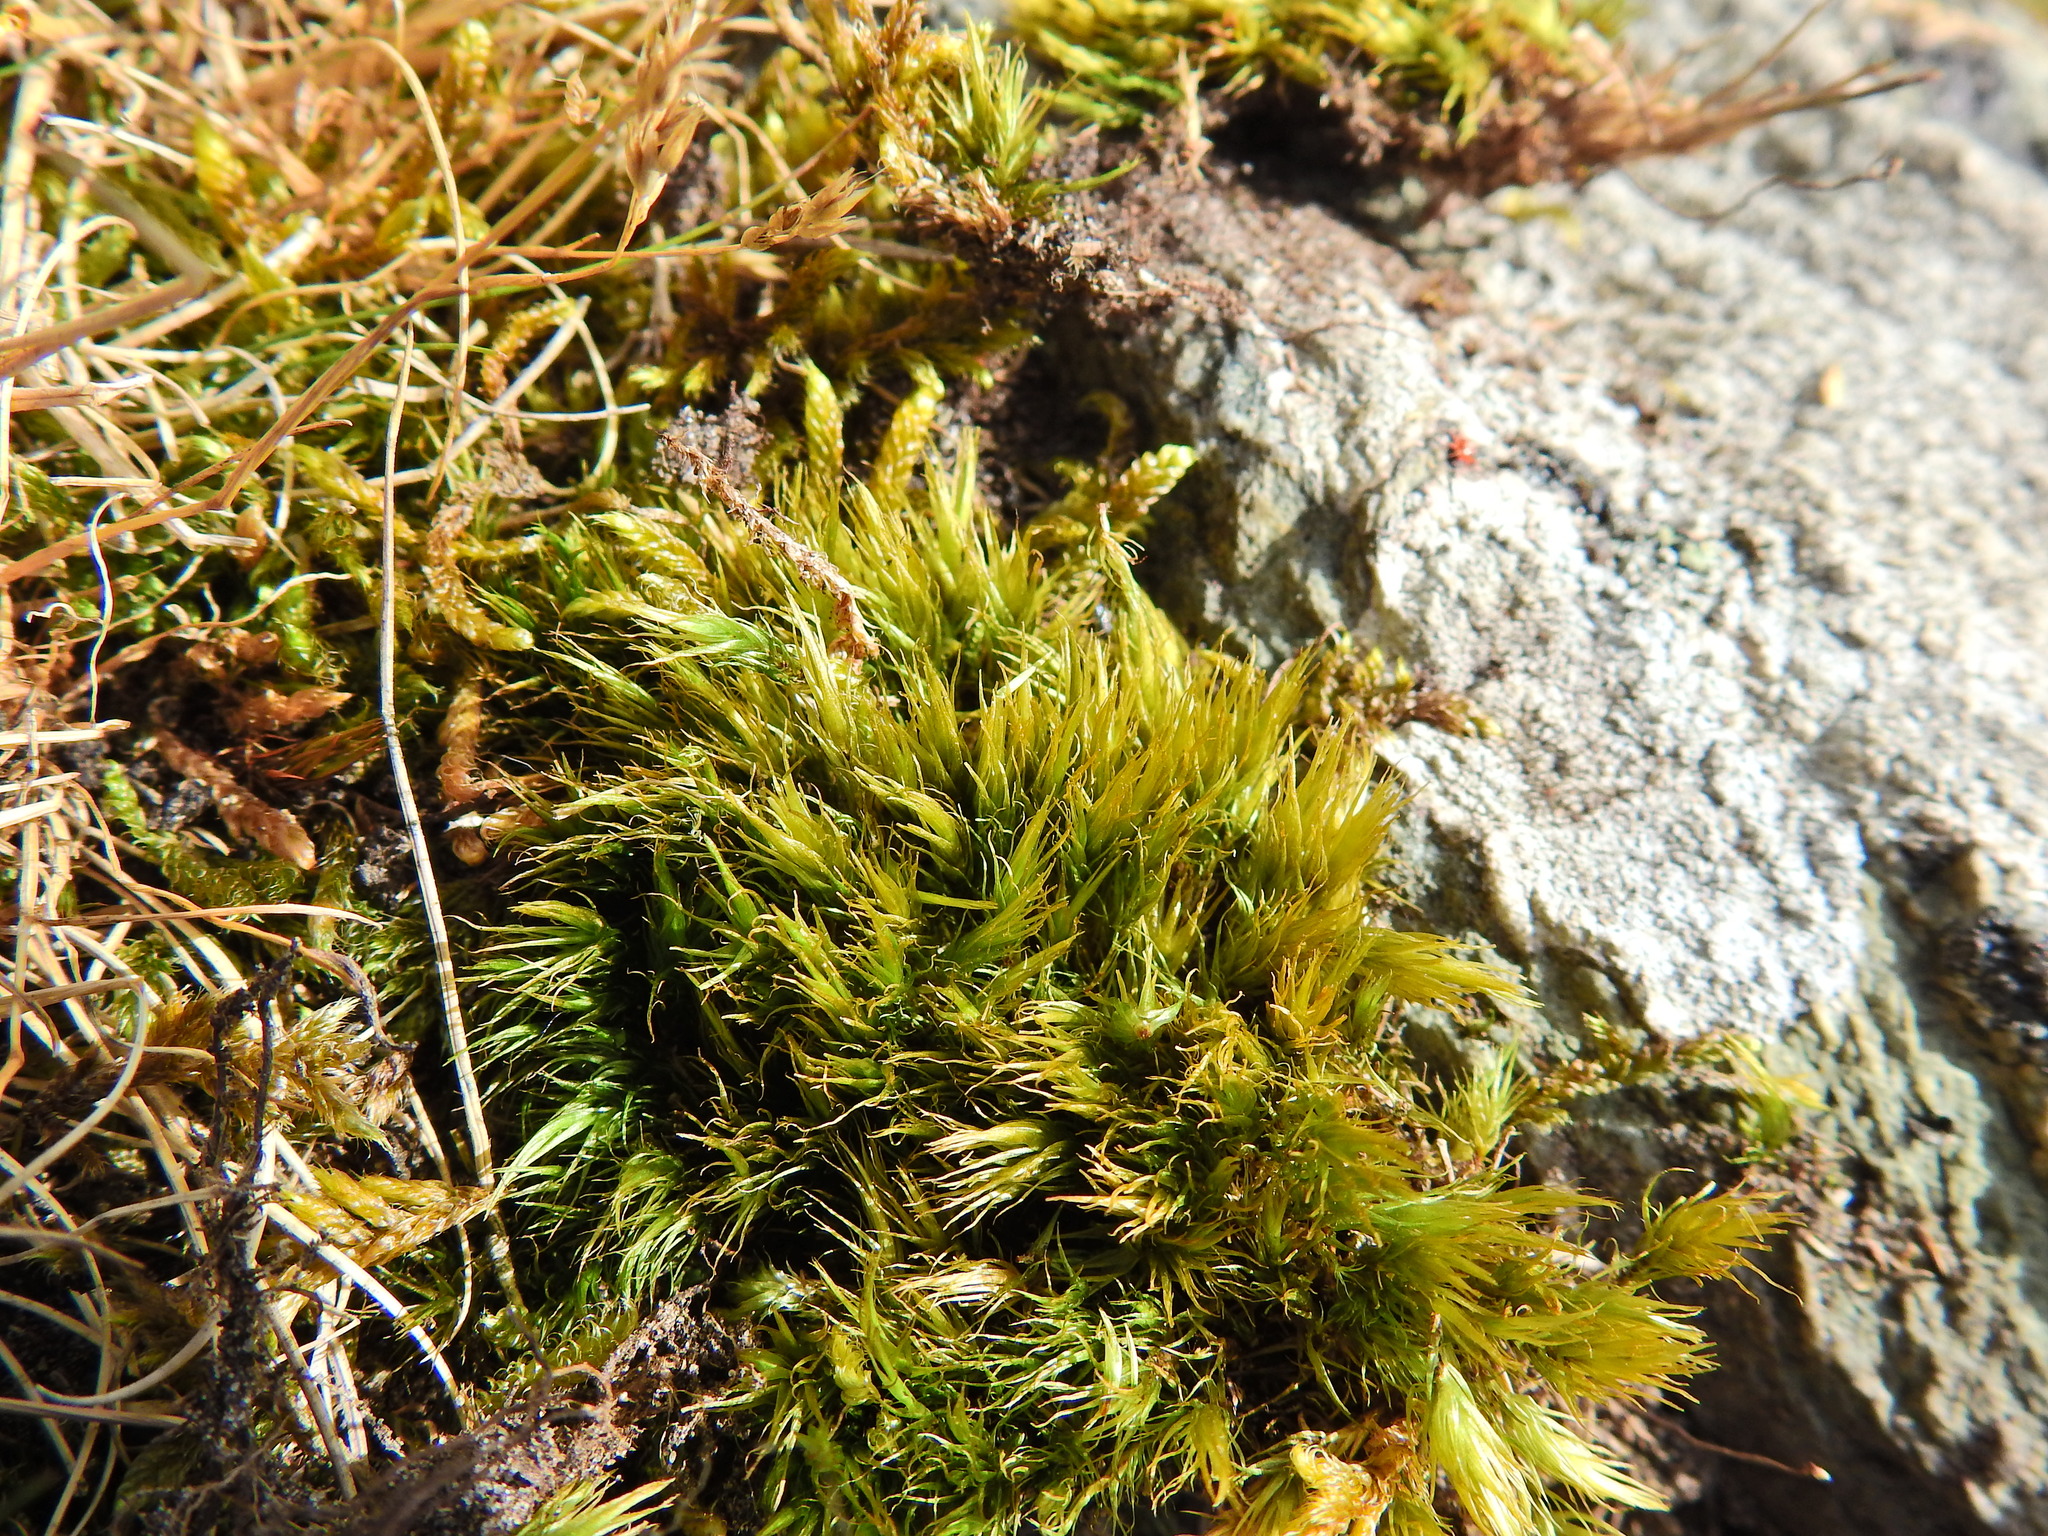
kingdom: Plantae
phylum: Bryophyta
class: Bryopsida
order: Dicranales
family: Dicranaceae
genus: Dicranum
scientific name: Dicranum scoparium
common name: Broom fork-moss
